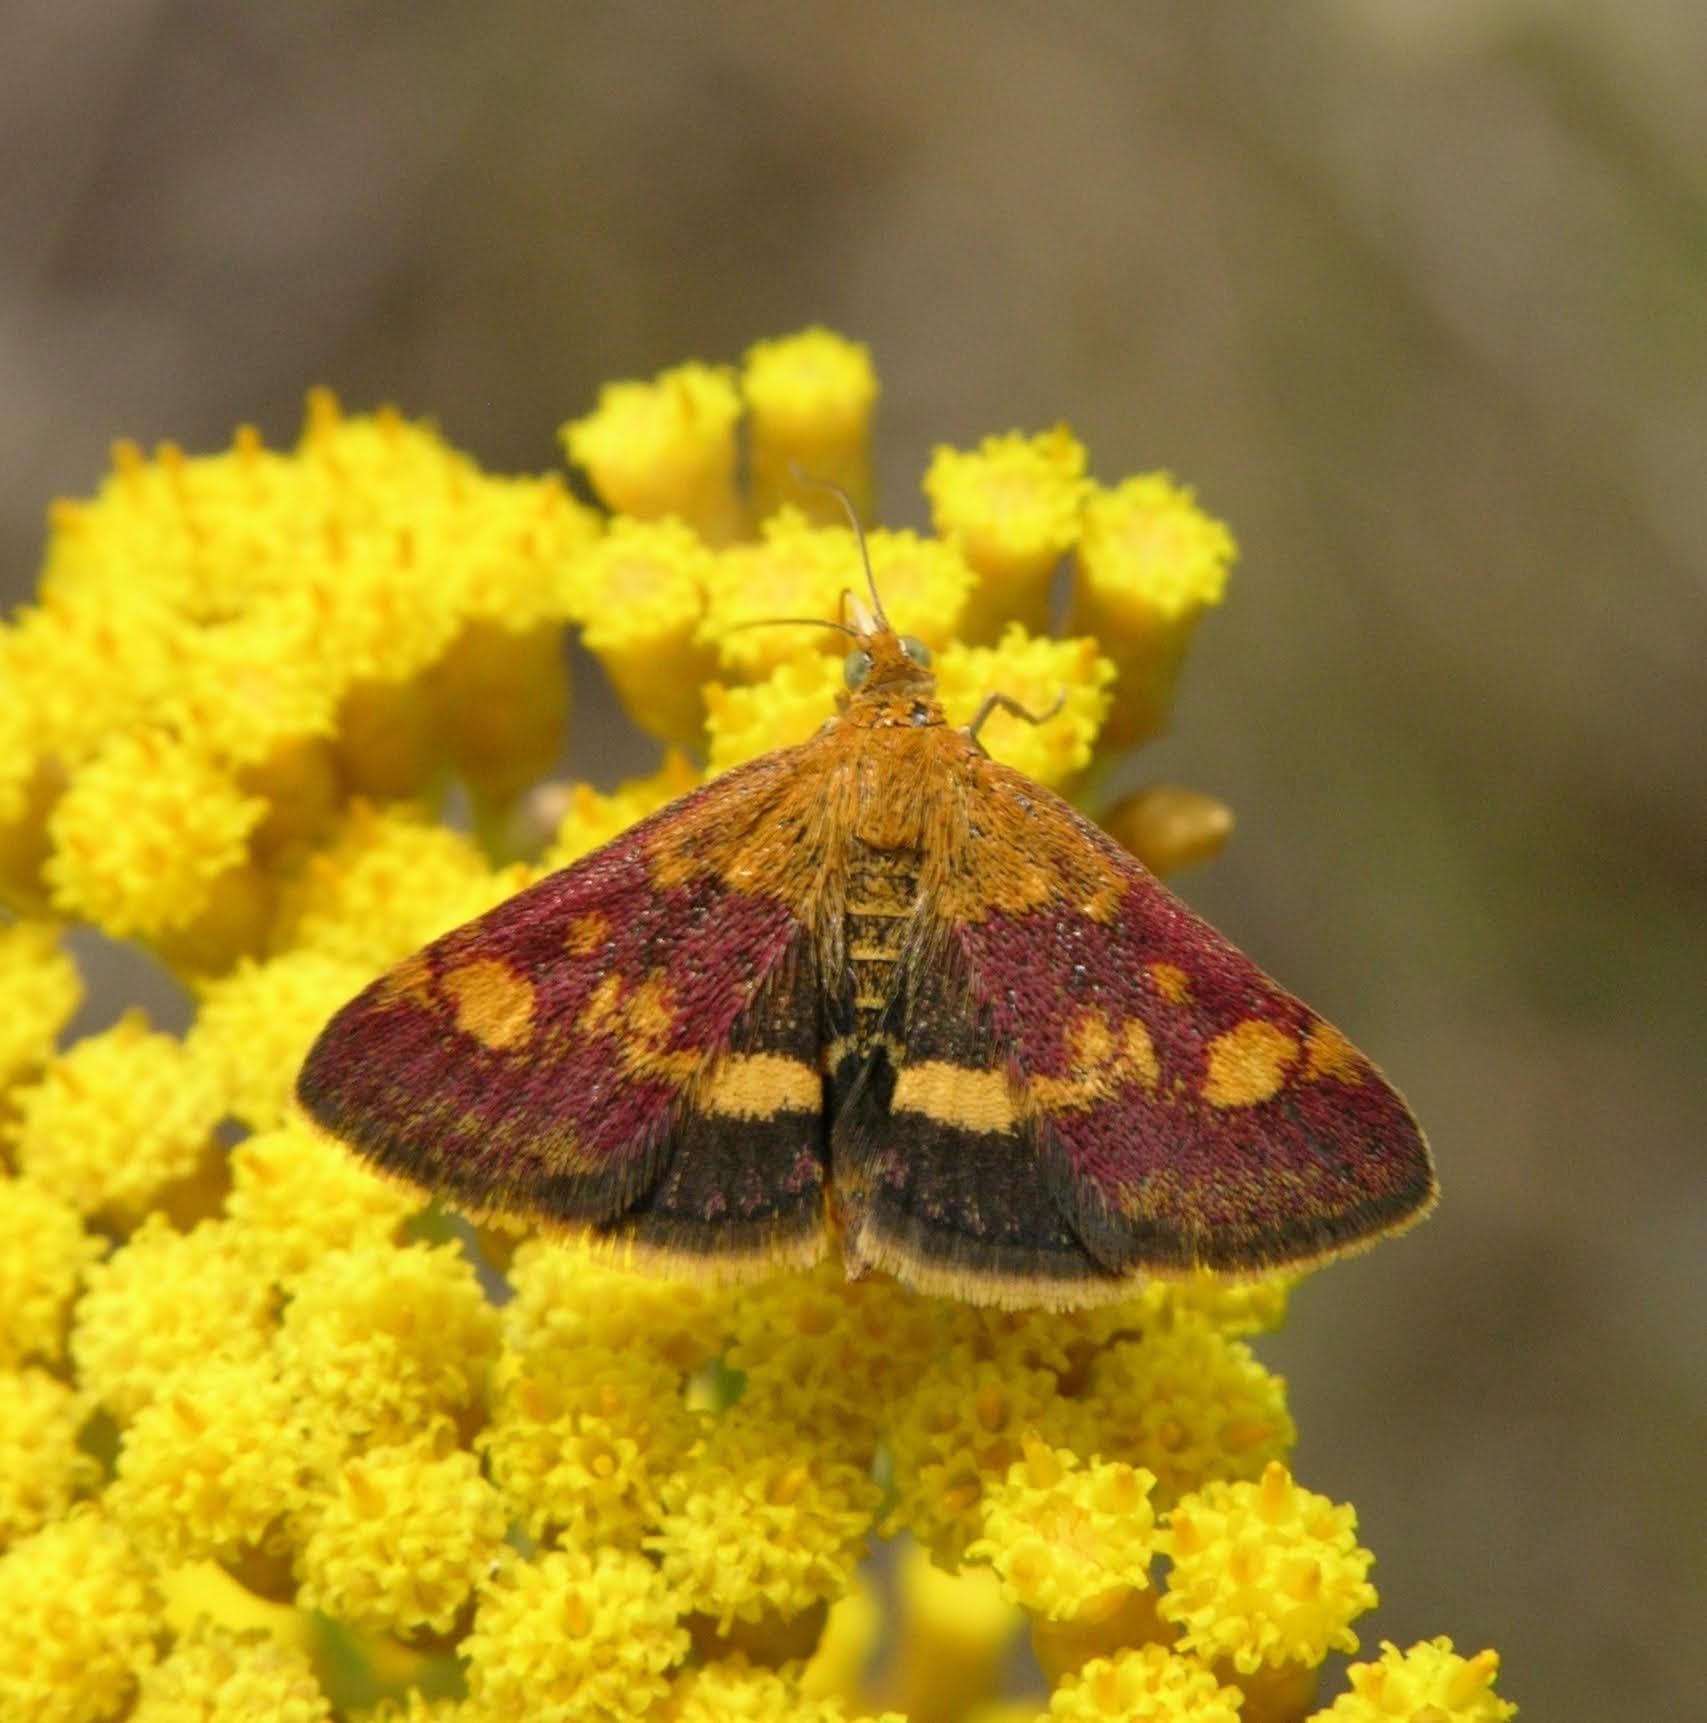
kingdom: Animalia
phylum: Arthropoda
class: Insecta
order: Lepidoptera
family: Crambidae
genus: Pyrausta
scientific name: Pyrausta aurata
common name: Small purple & gold
